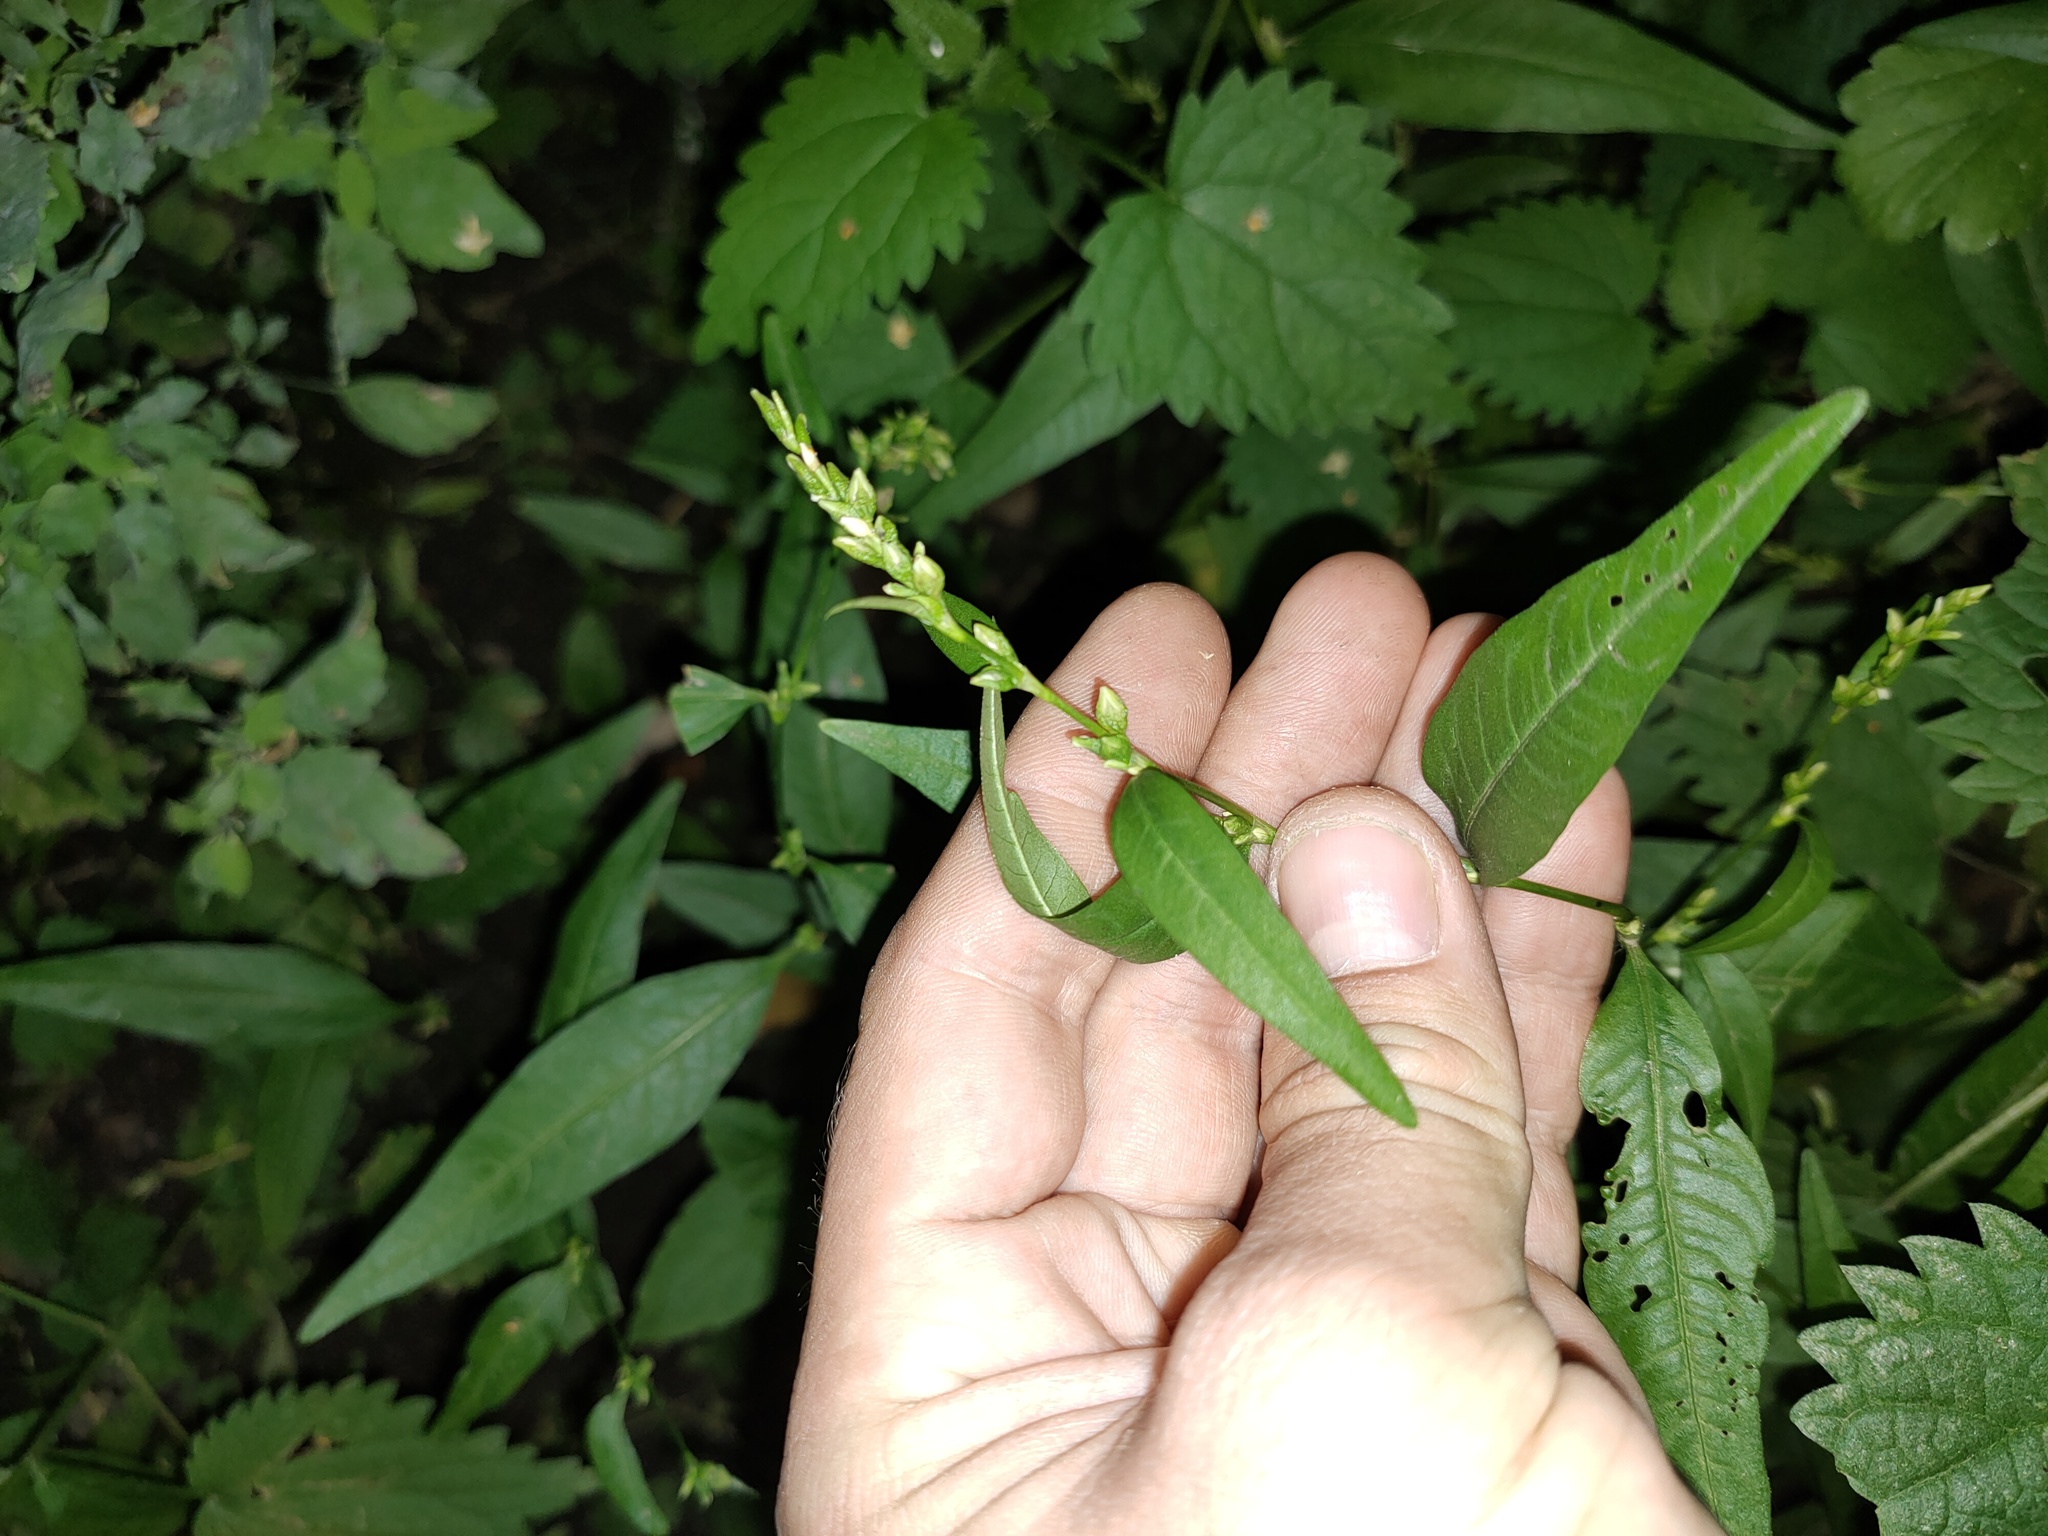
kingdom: Plantae
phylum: Tracheophyta
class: Magnoliopsida
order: Caryophyllales
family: Polygonaceae
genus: Persicaria
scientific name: Persicaria hydropiper
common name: Water-pepper
